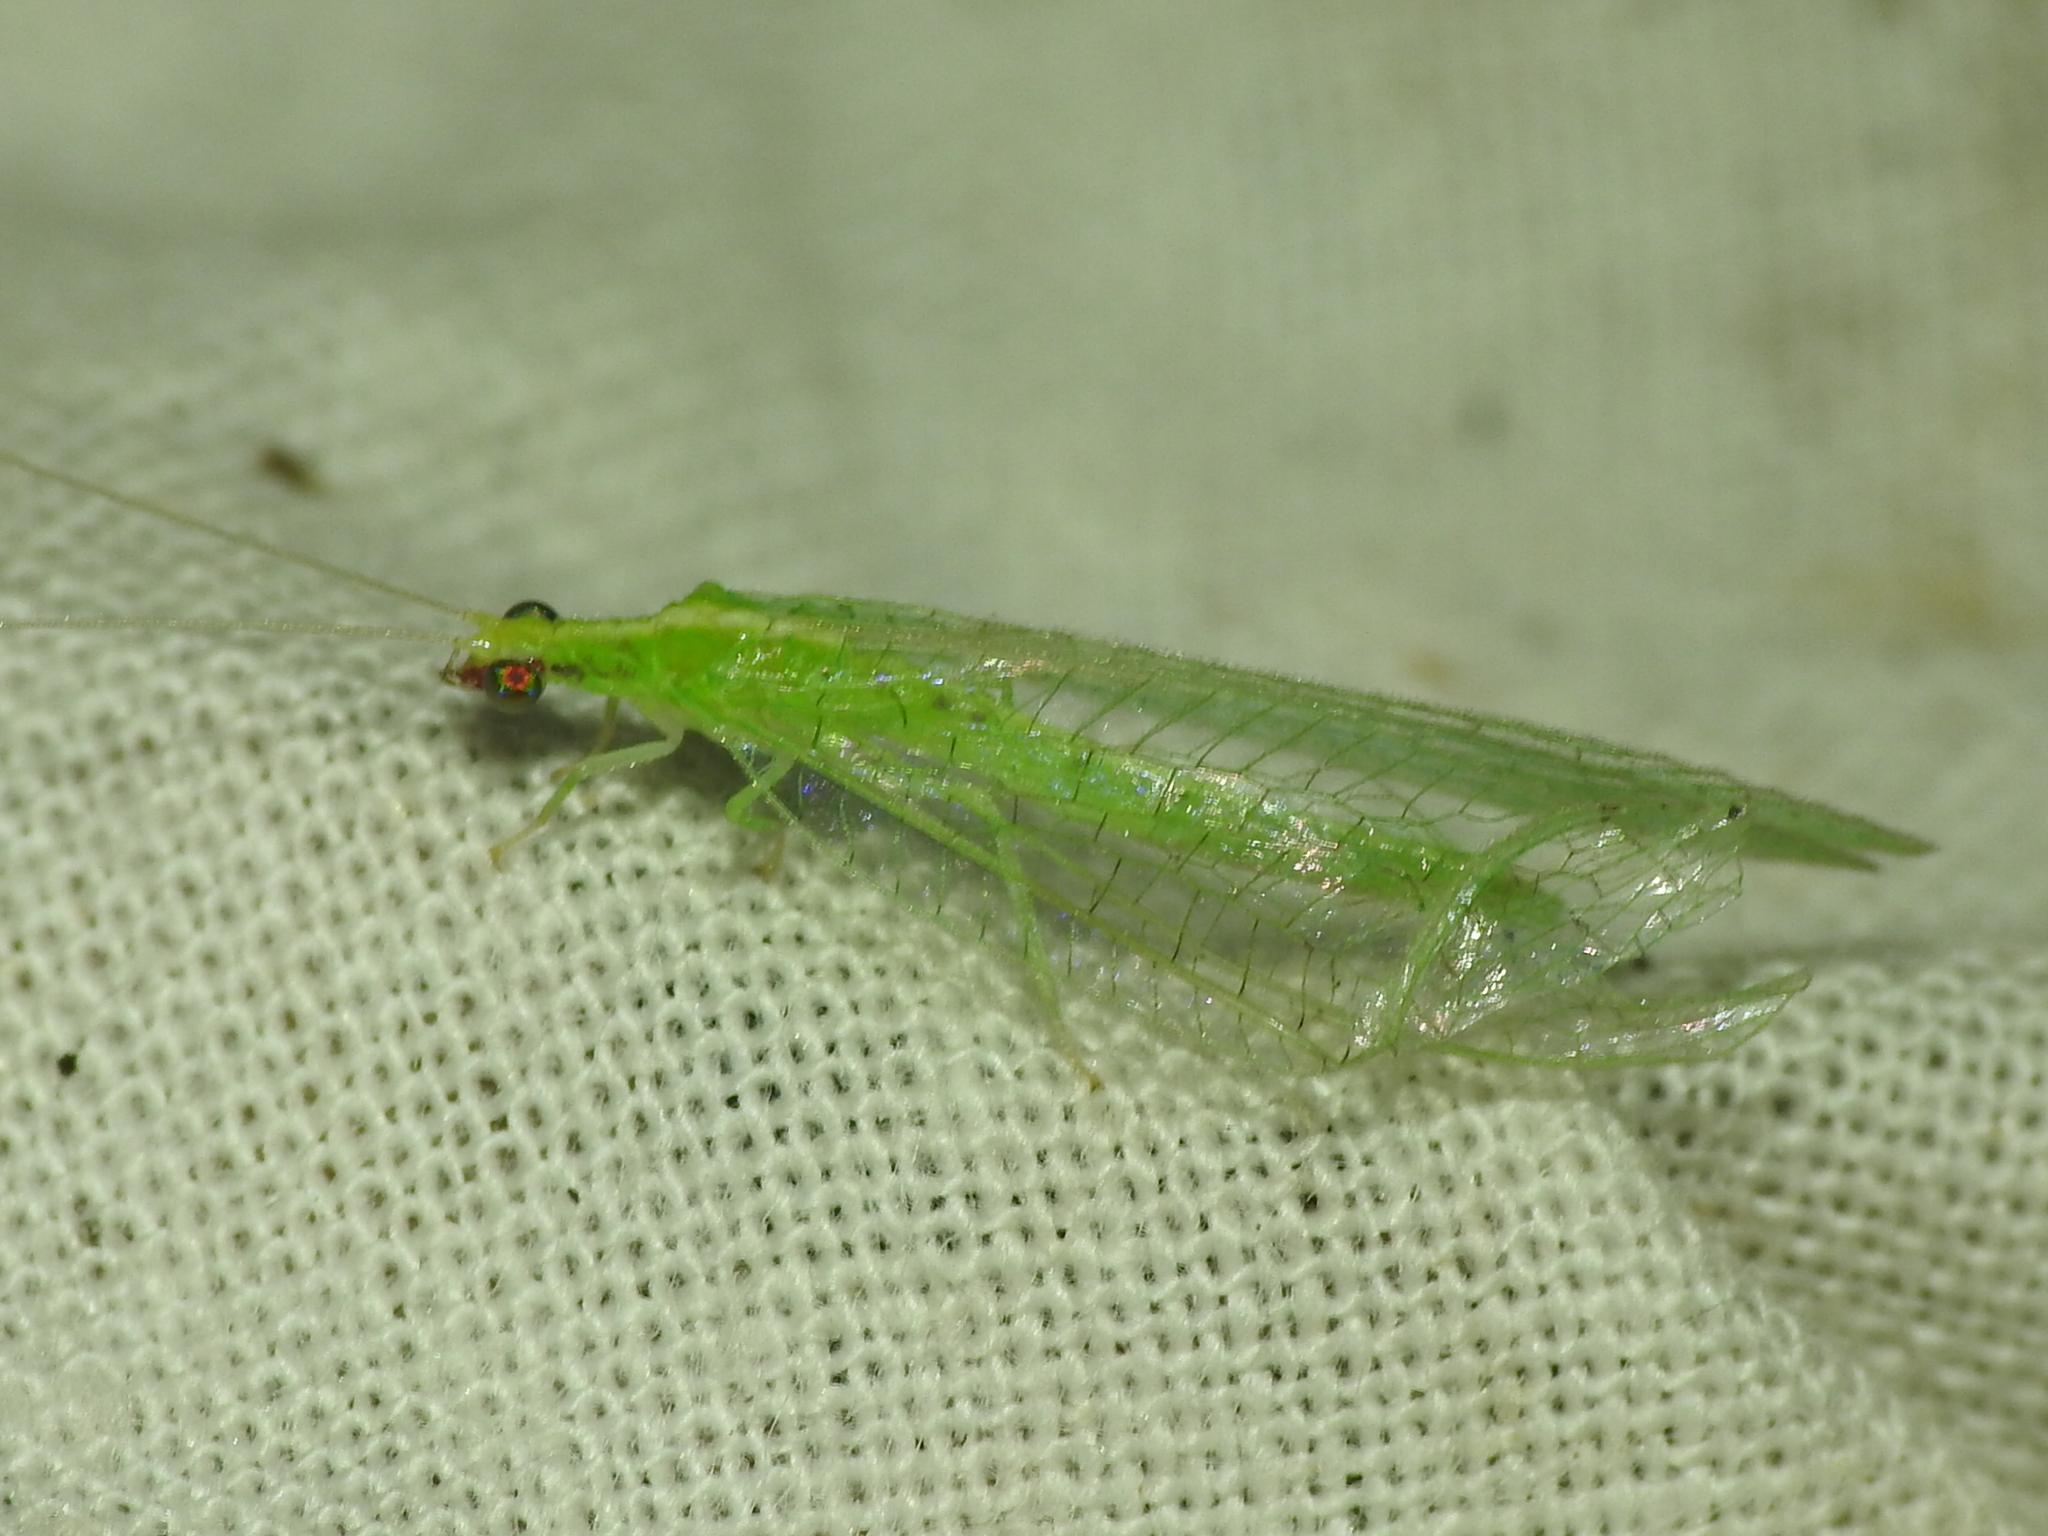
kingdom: Animalia
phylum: Arthropoda
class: Insecta
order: Neuroptera
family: Chrysopidae
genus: Chrysoperla
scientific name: Chrysoperla rufilabris
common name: Red-lipped green lacewing
